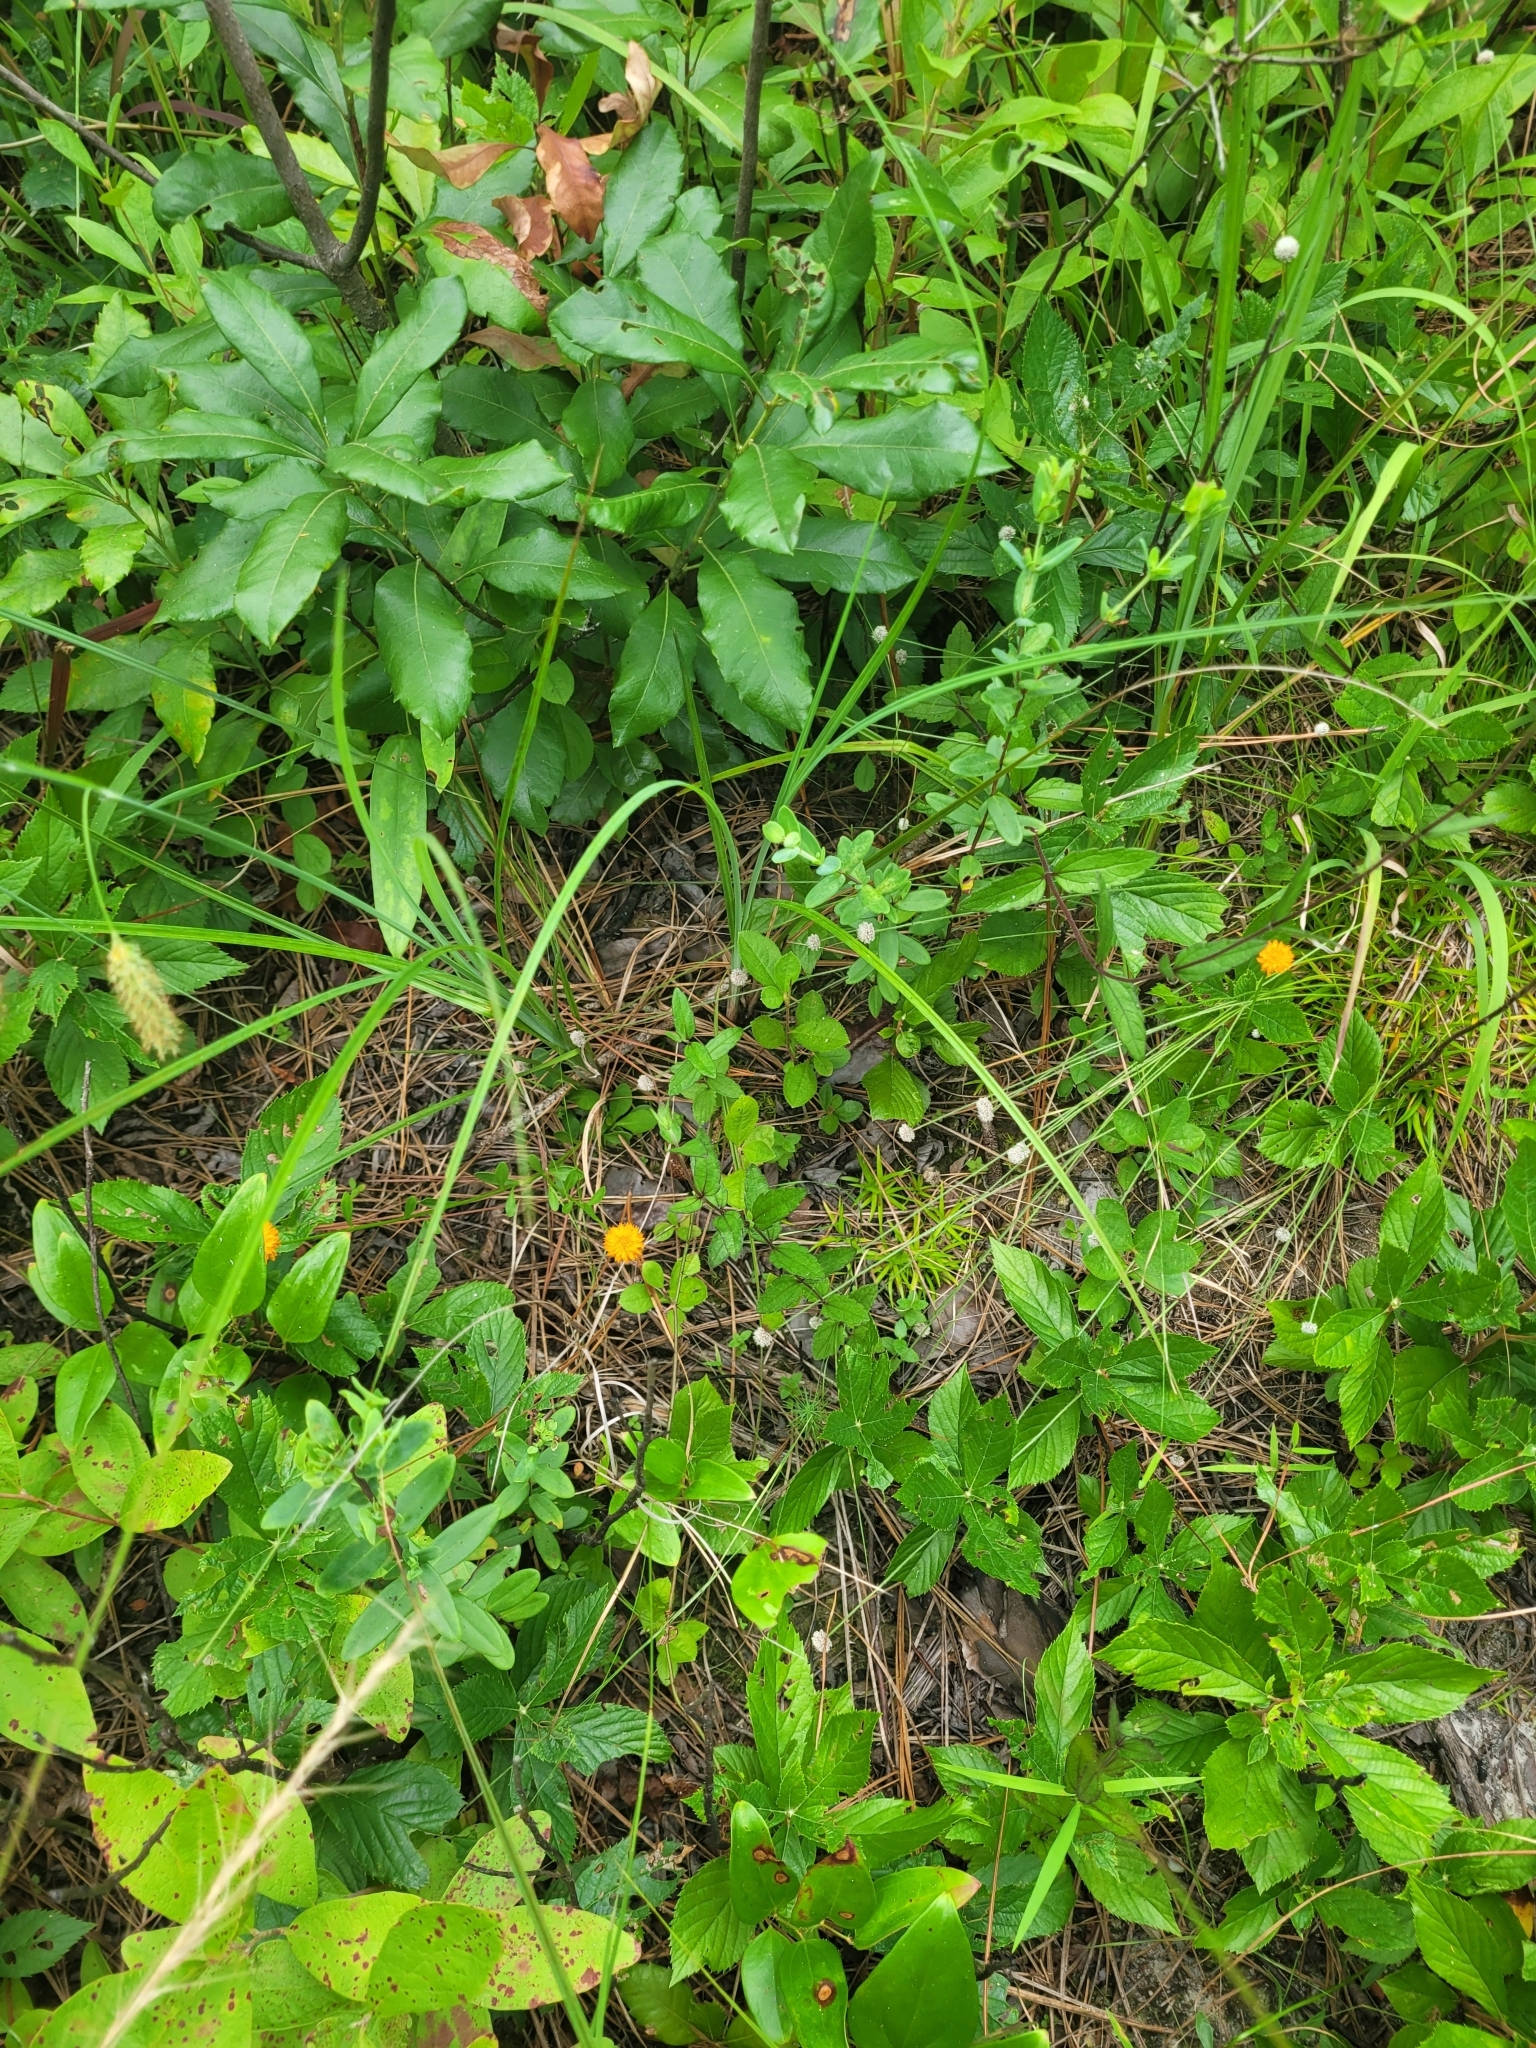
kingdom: Plantae
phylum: Tracheophyta
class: Magnoliopsida
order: Fabales
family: Polygalaceae
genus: Polygala
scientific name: Polygala lutea
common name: Orange milkwort
